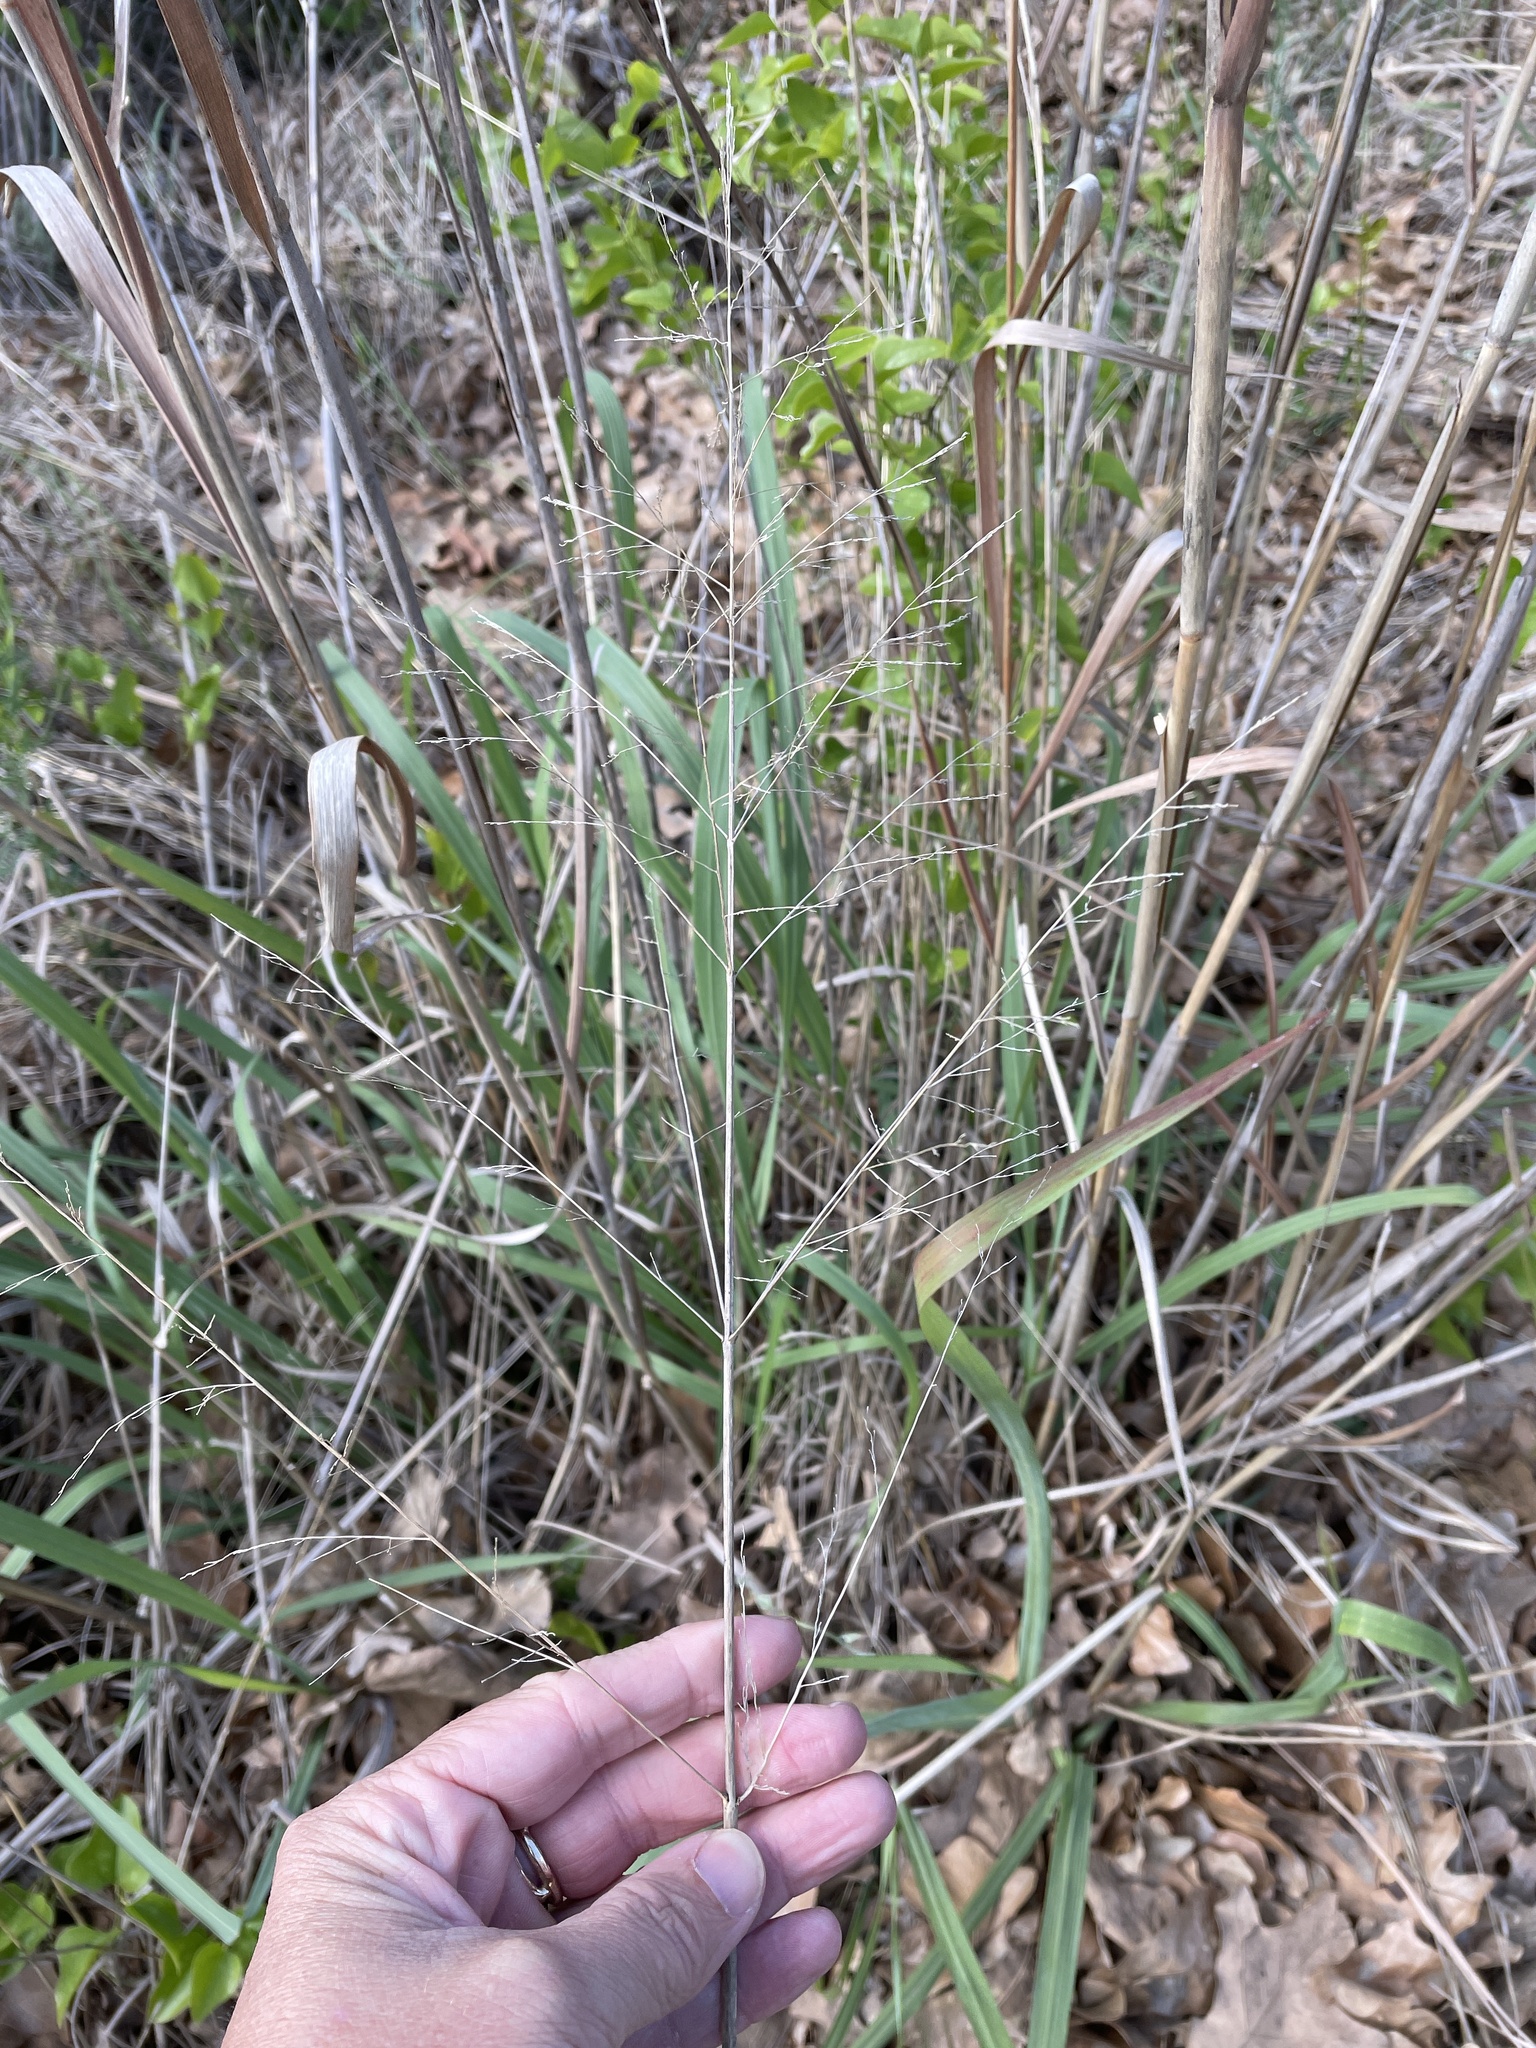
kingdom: Plantae
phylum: Tracheophyta
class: Liliopsida
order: Poales
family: Poaceae
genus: Panicum
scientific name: Panicum virgatum
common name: Switchgrass
